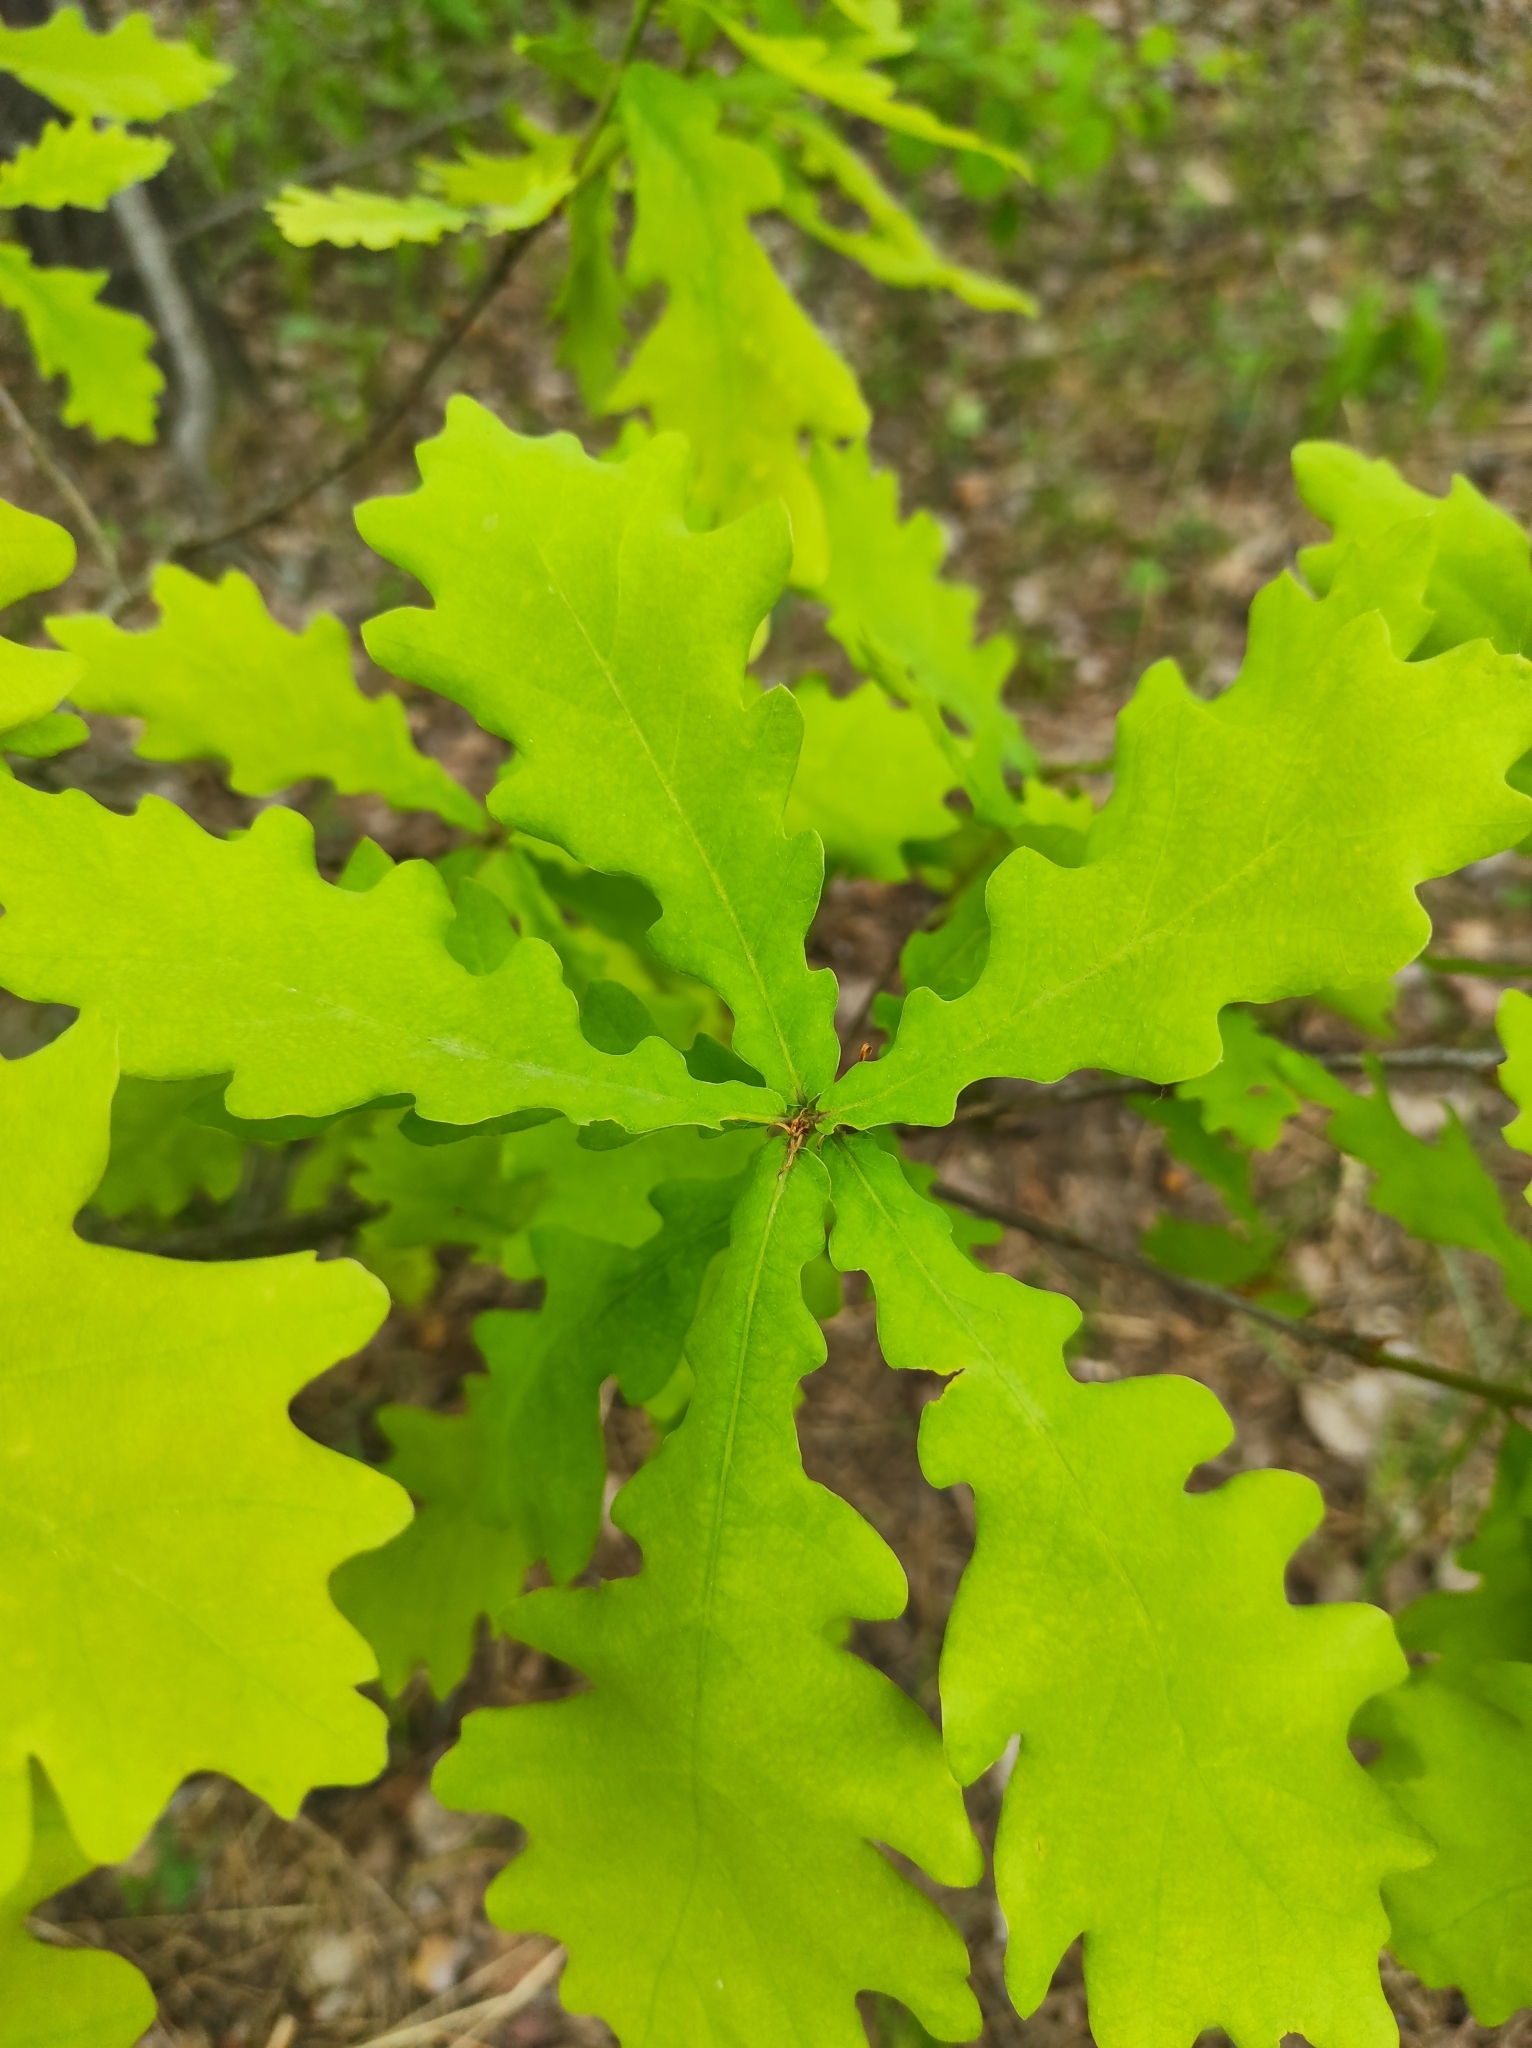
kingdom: Plantae
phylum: Tracheophyta
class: Magnoliopsida
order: Fagales
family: Fagaceae
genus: Quercus
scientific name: Quercus robur
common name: Pedunculate oak
